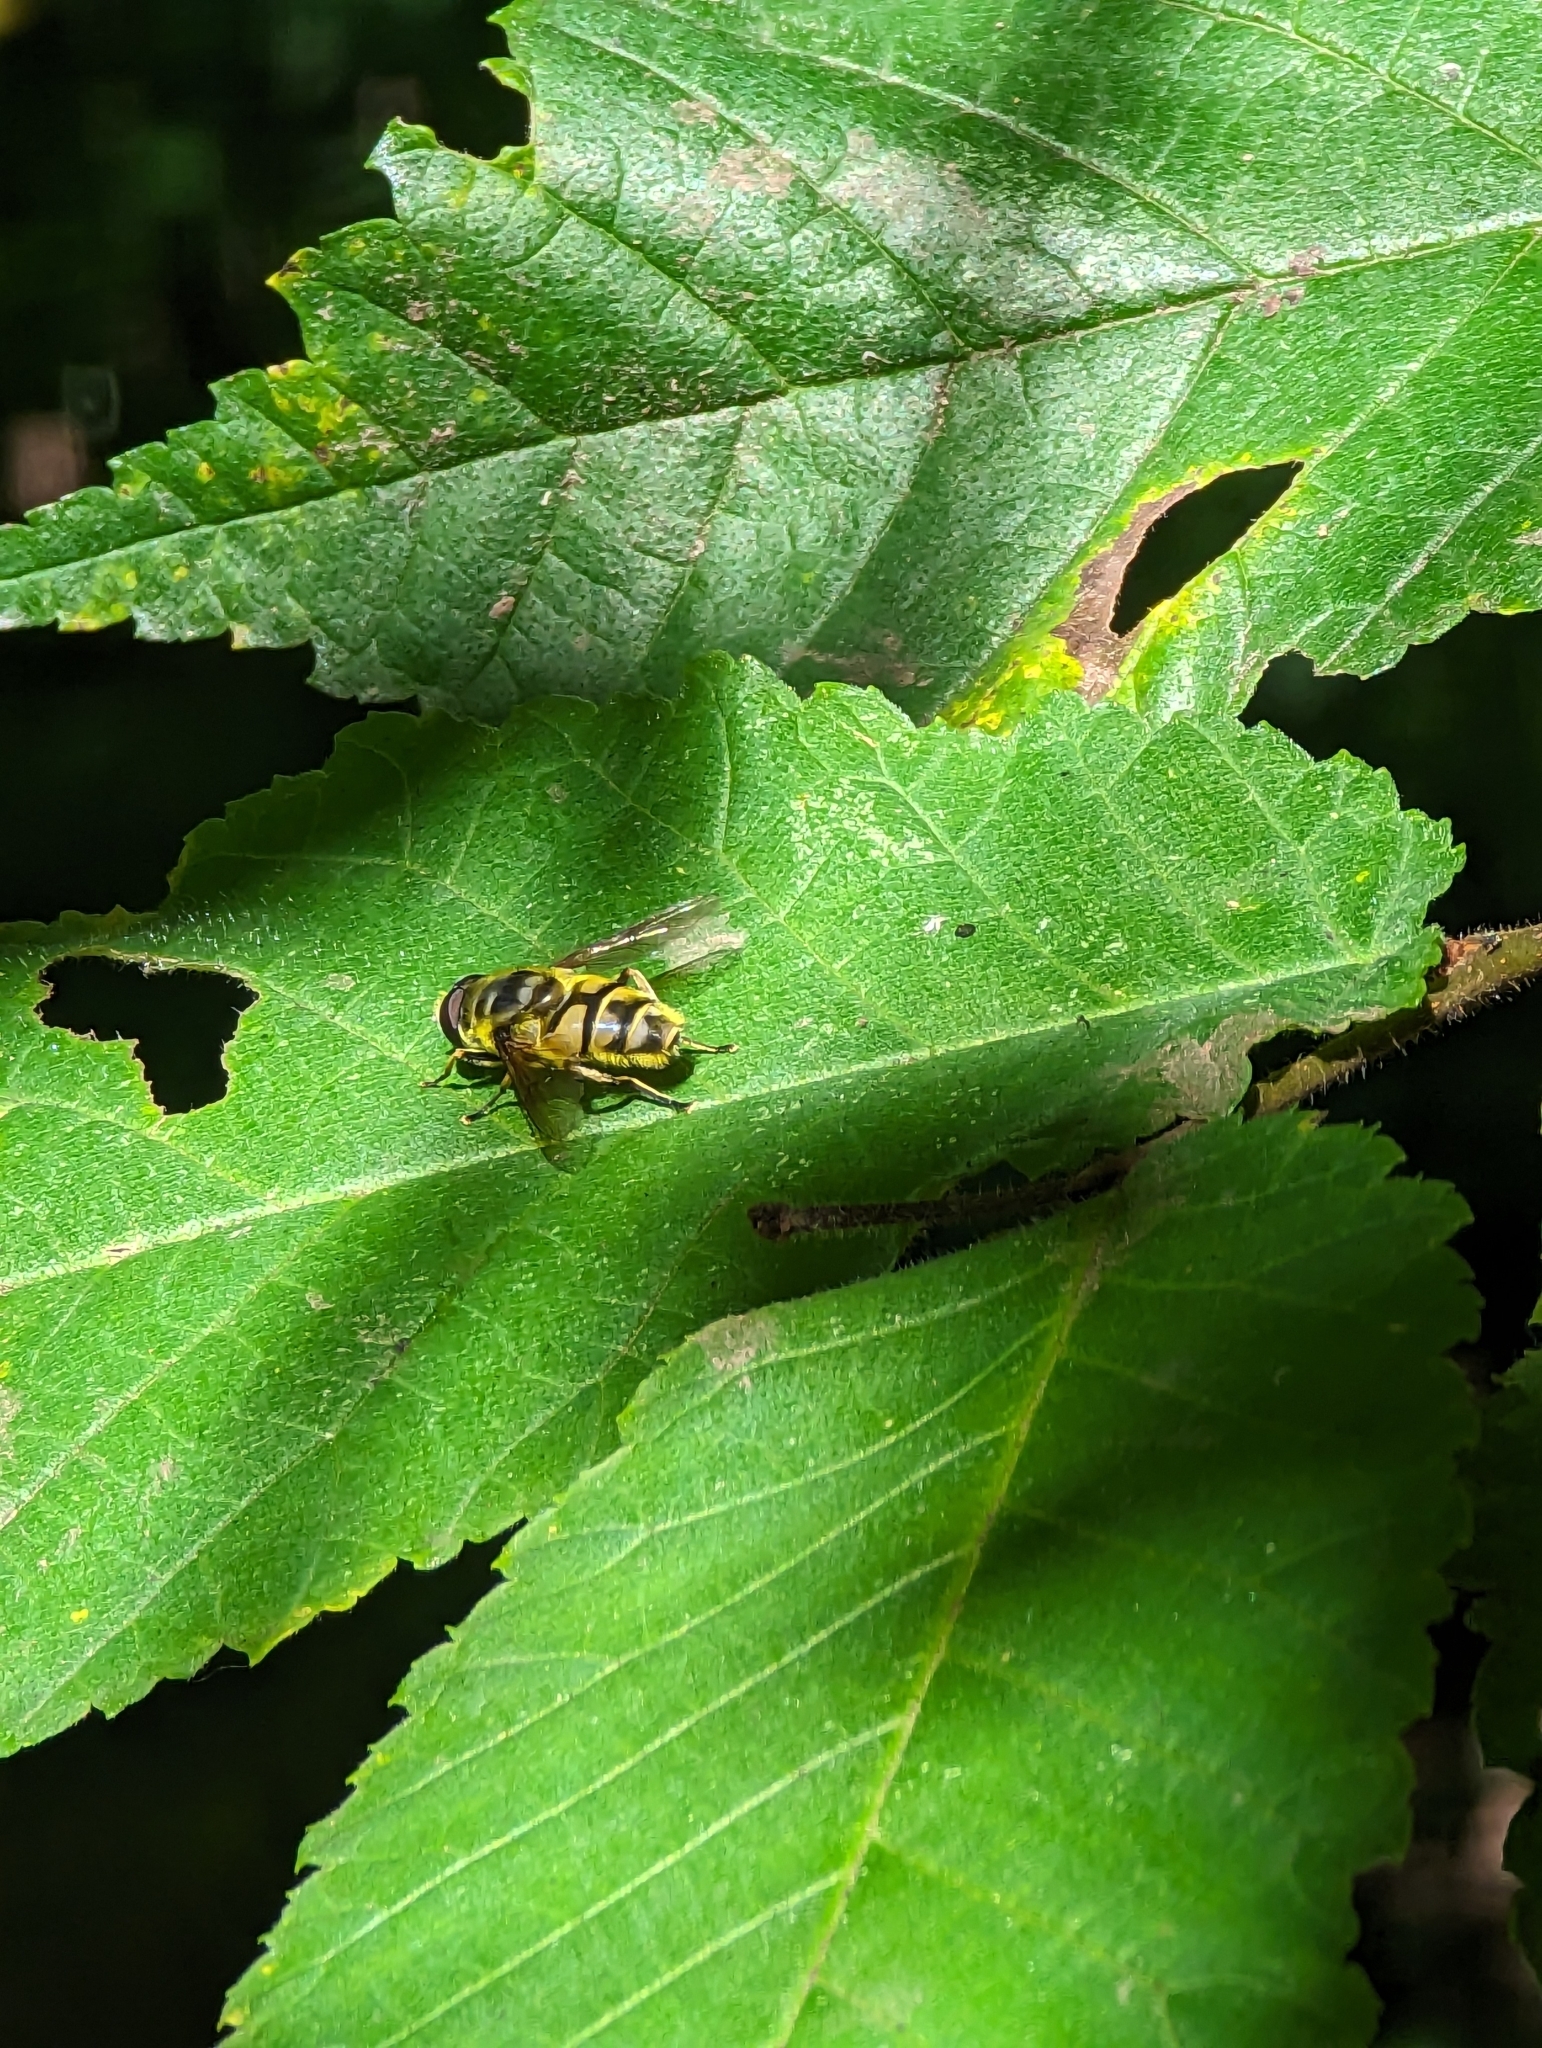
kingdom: Animalia
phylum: Arthropoda
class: Insecta
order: Diptera
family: Syrphidae
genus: Myathropa
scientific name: Myathropa florea
